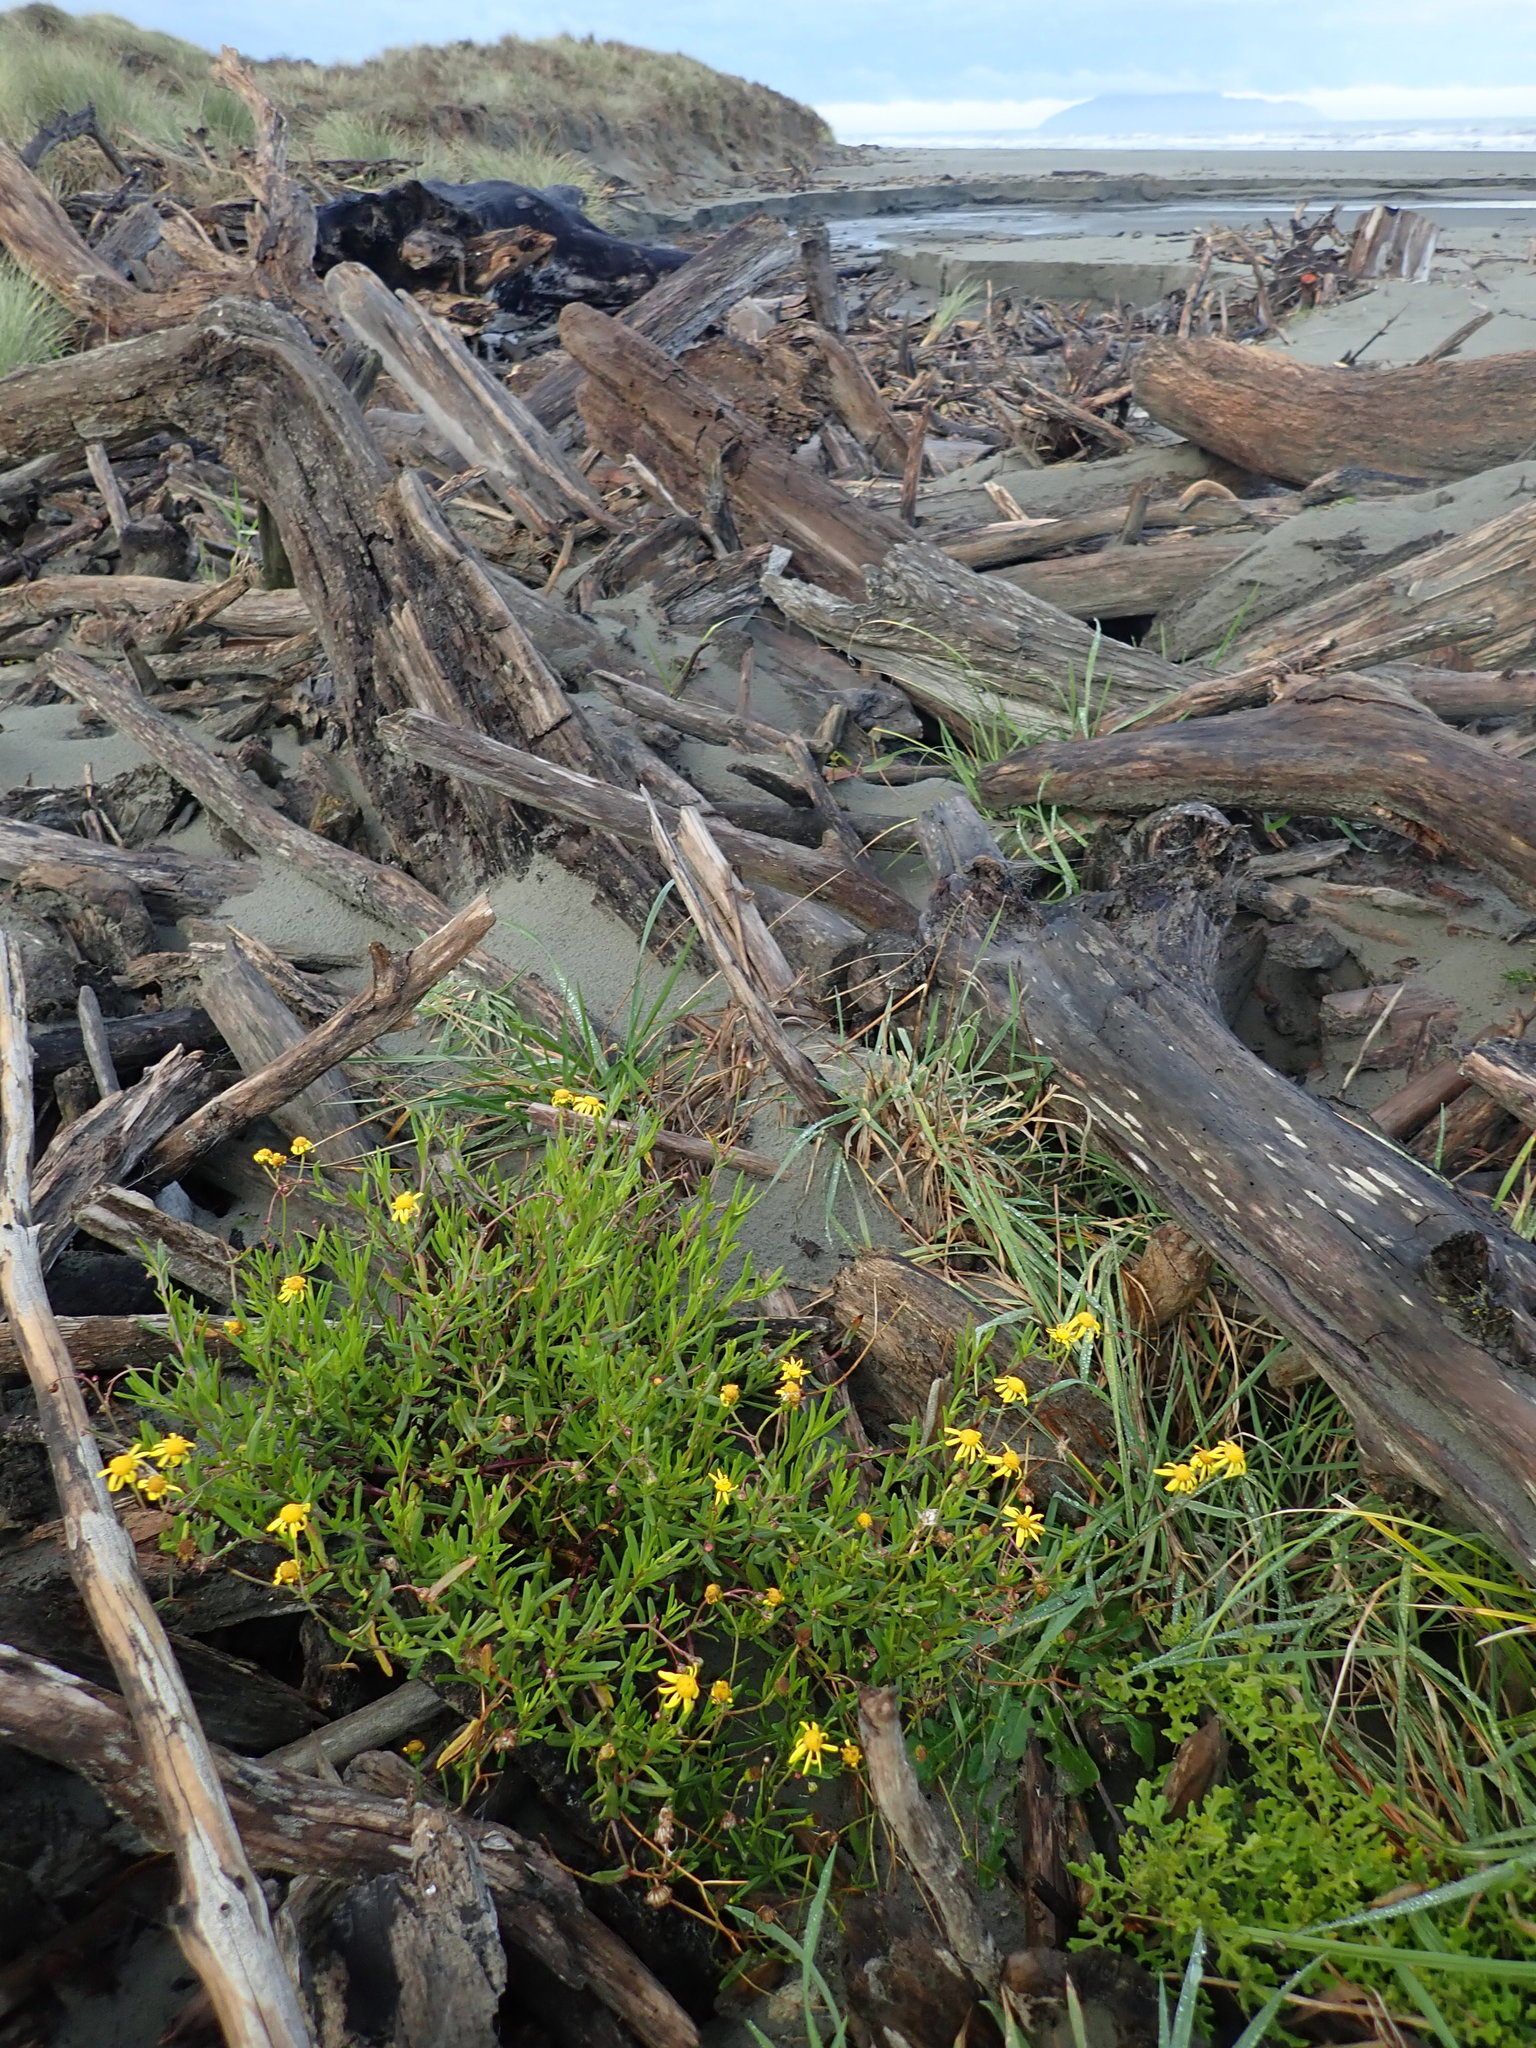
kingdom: Plantae
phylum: Tracheophyta
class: Magnoliopsida
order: Asterales
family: Asteraceae
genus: Senecio
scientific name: Senecio skirrhodon
